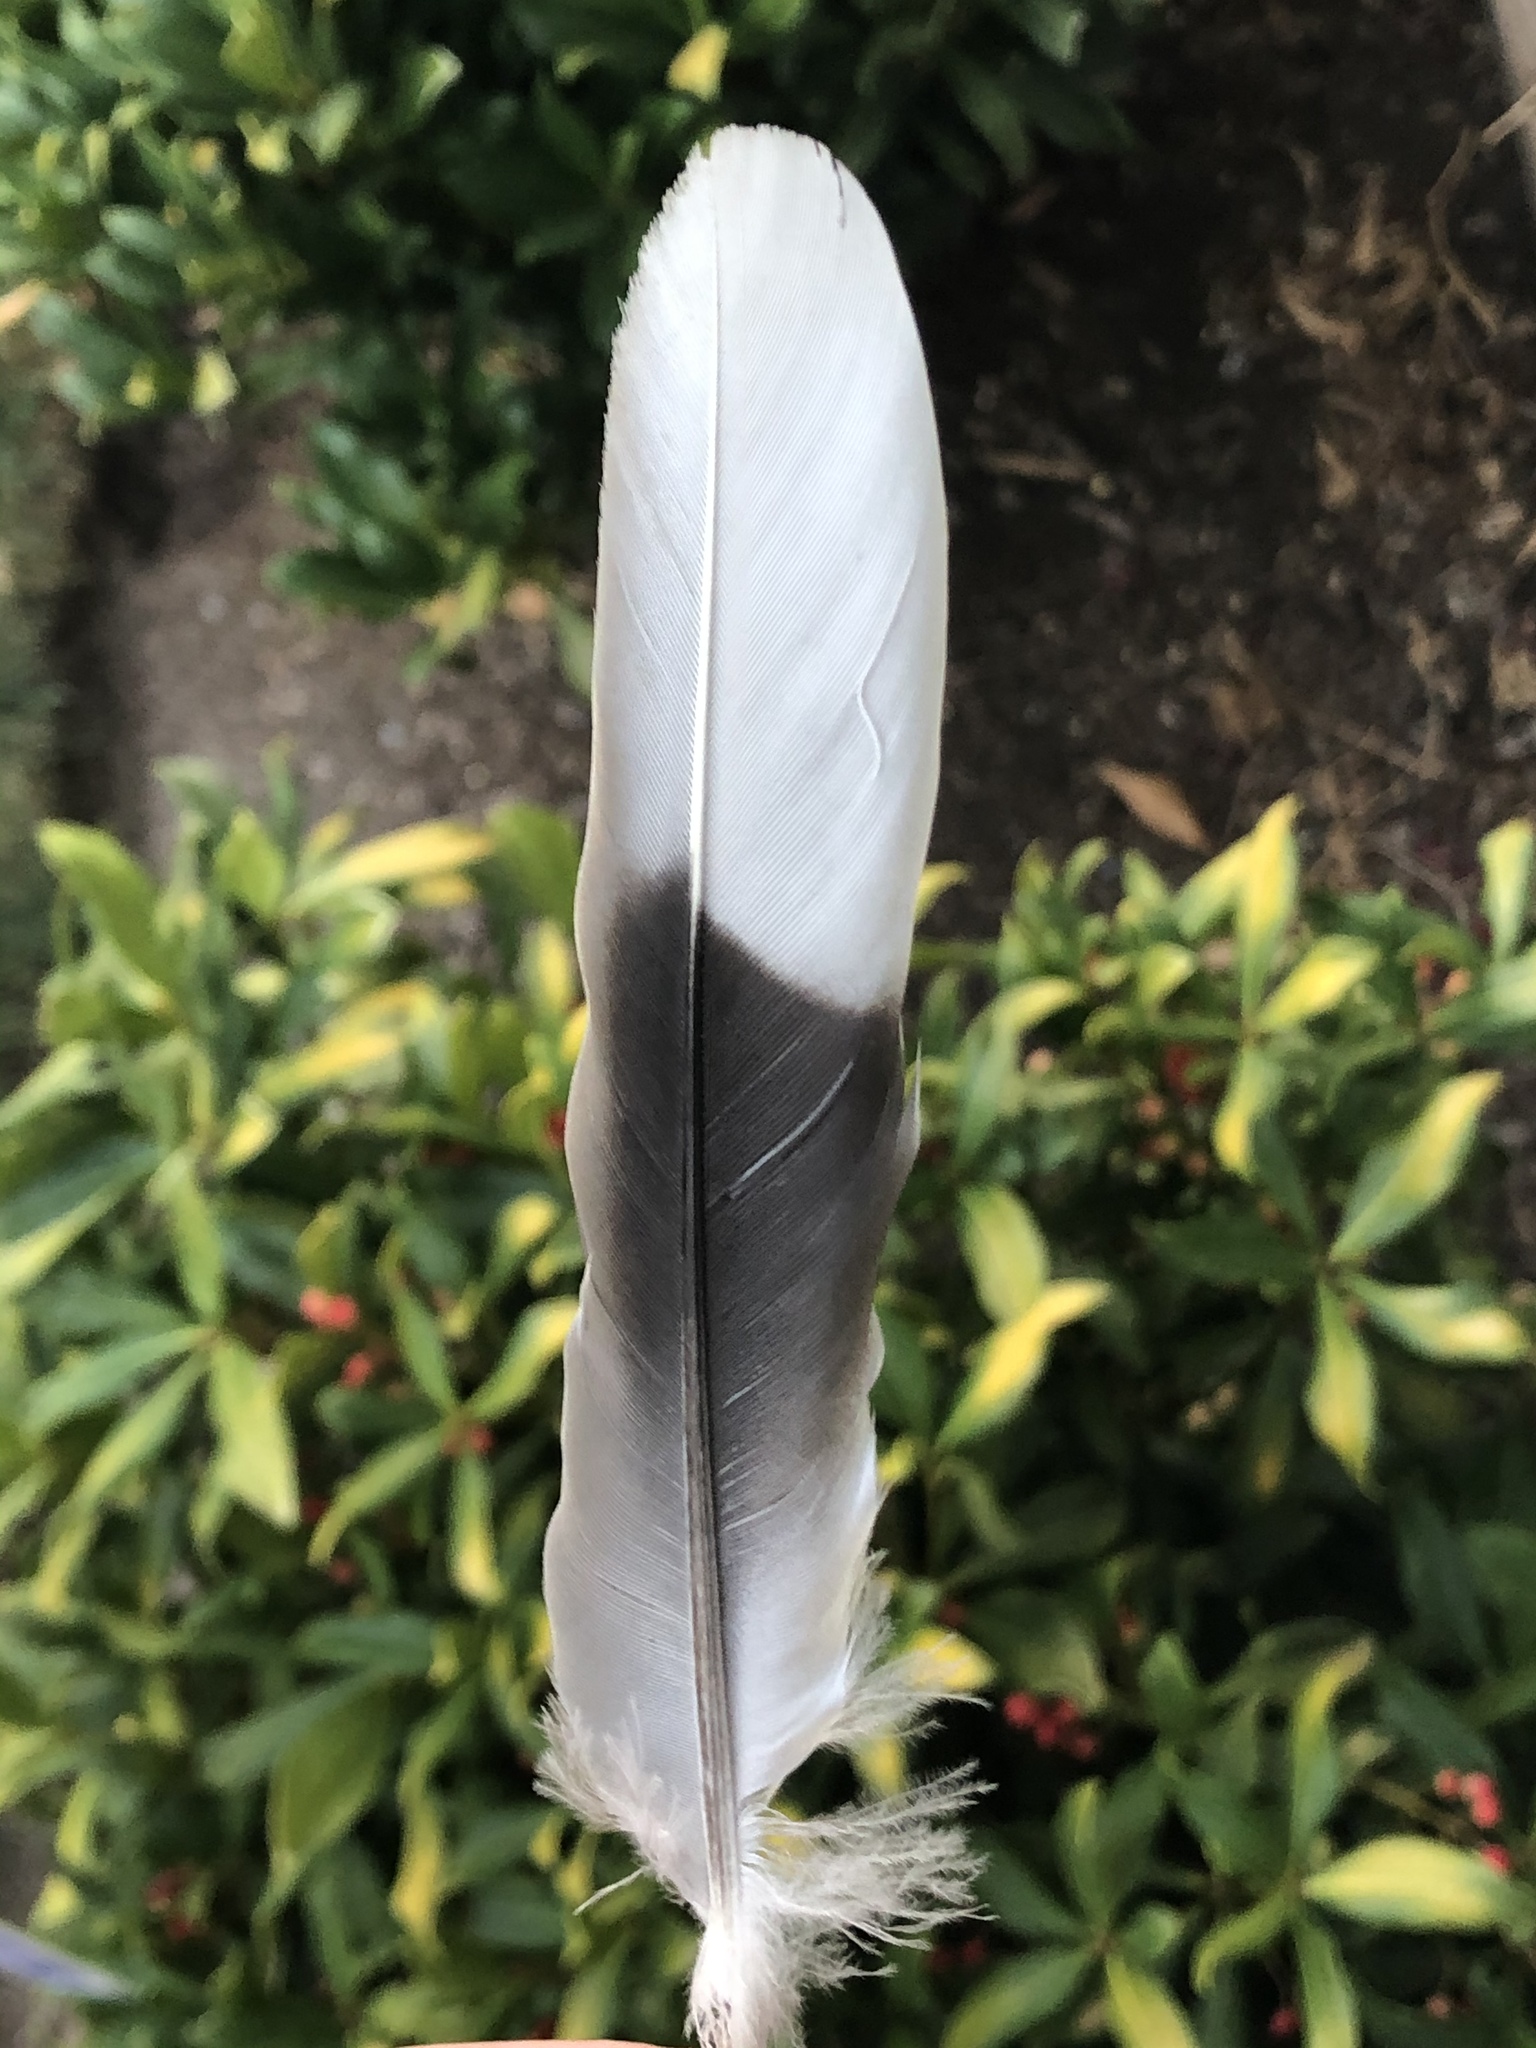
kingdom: Animalia
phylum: Chordata
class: Aves
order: Columbiformes
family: Columbidae
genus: Streptopelia
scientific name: Streptopelia decaocto
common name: Eurasian collared dove
